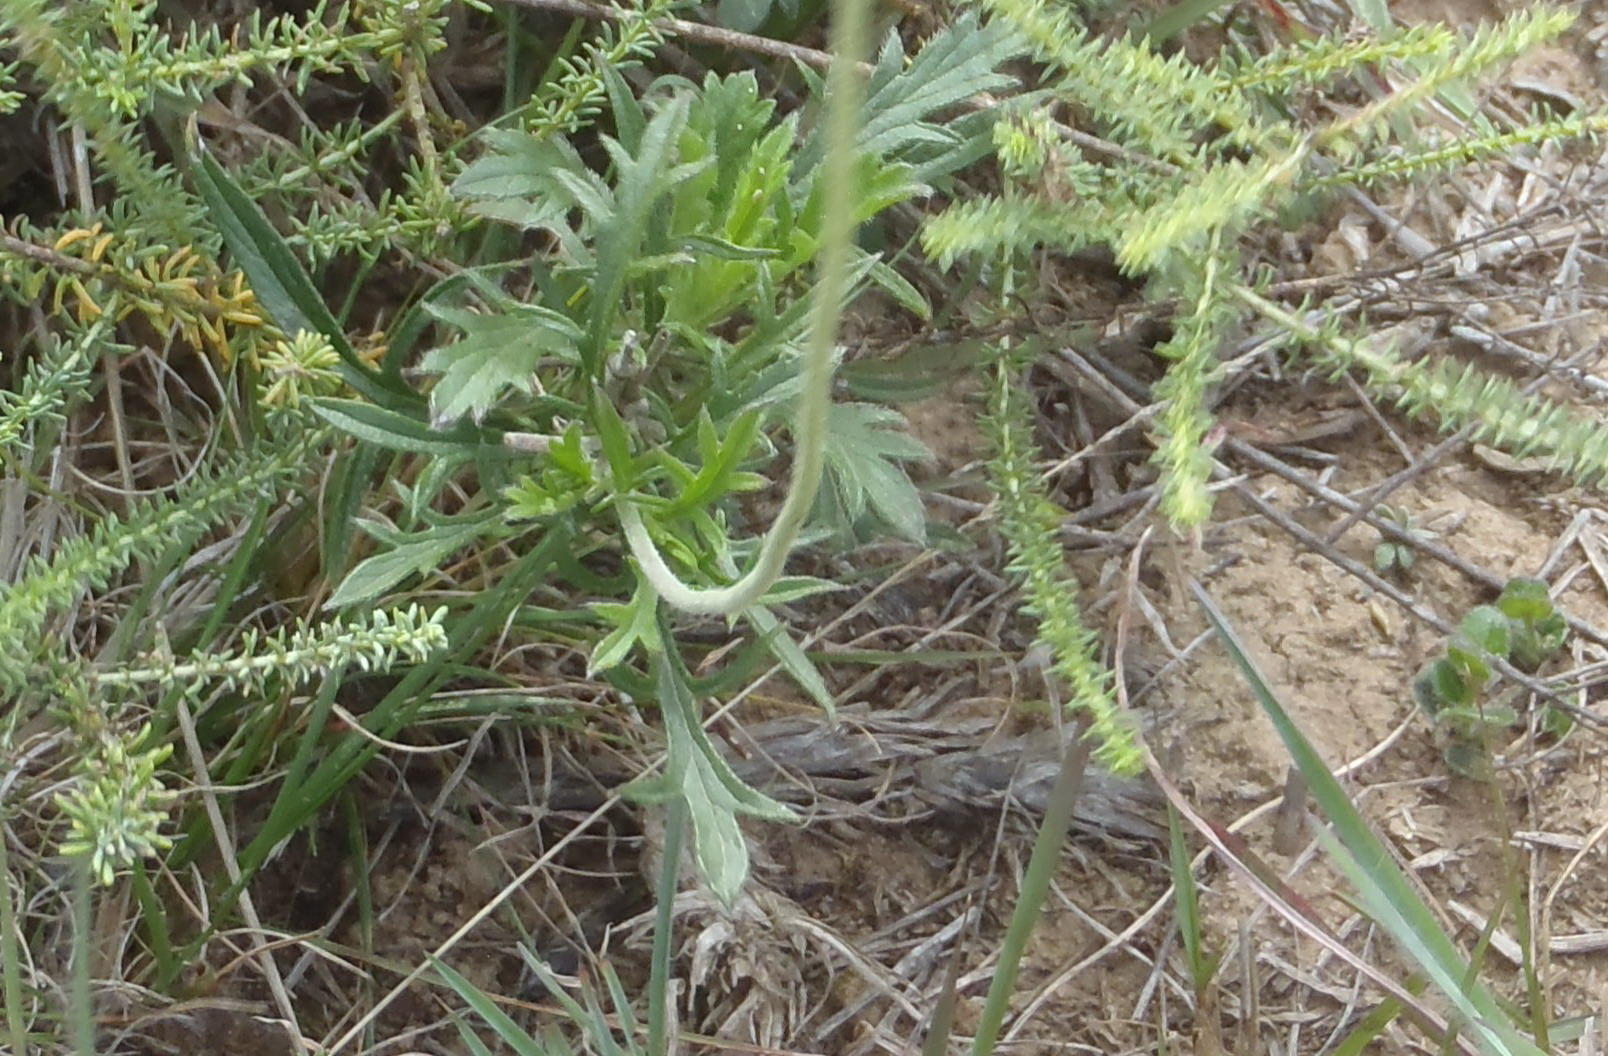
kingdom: Plantae
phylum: Tracheophyta
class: Magnoliopsida
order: Dipsacales
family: Caprifoliaceae
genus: Scabiosa
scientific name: Scabiosa tysonii
